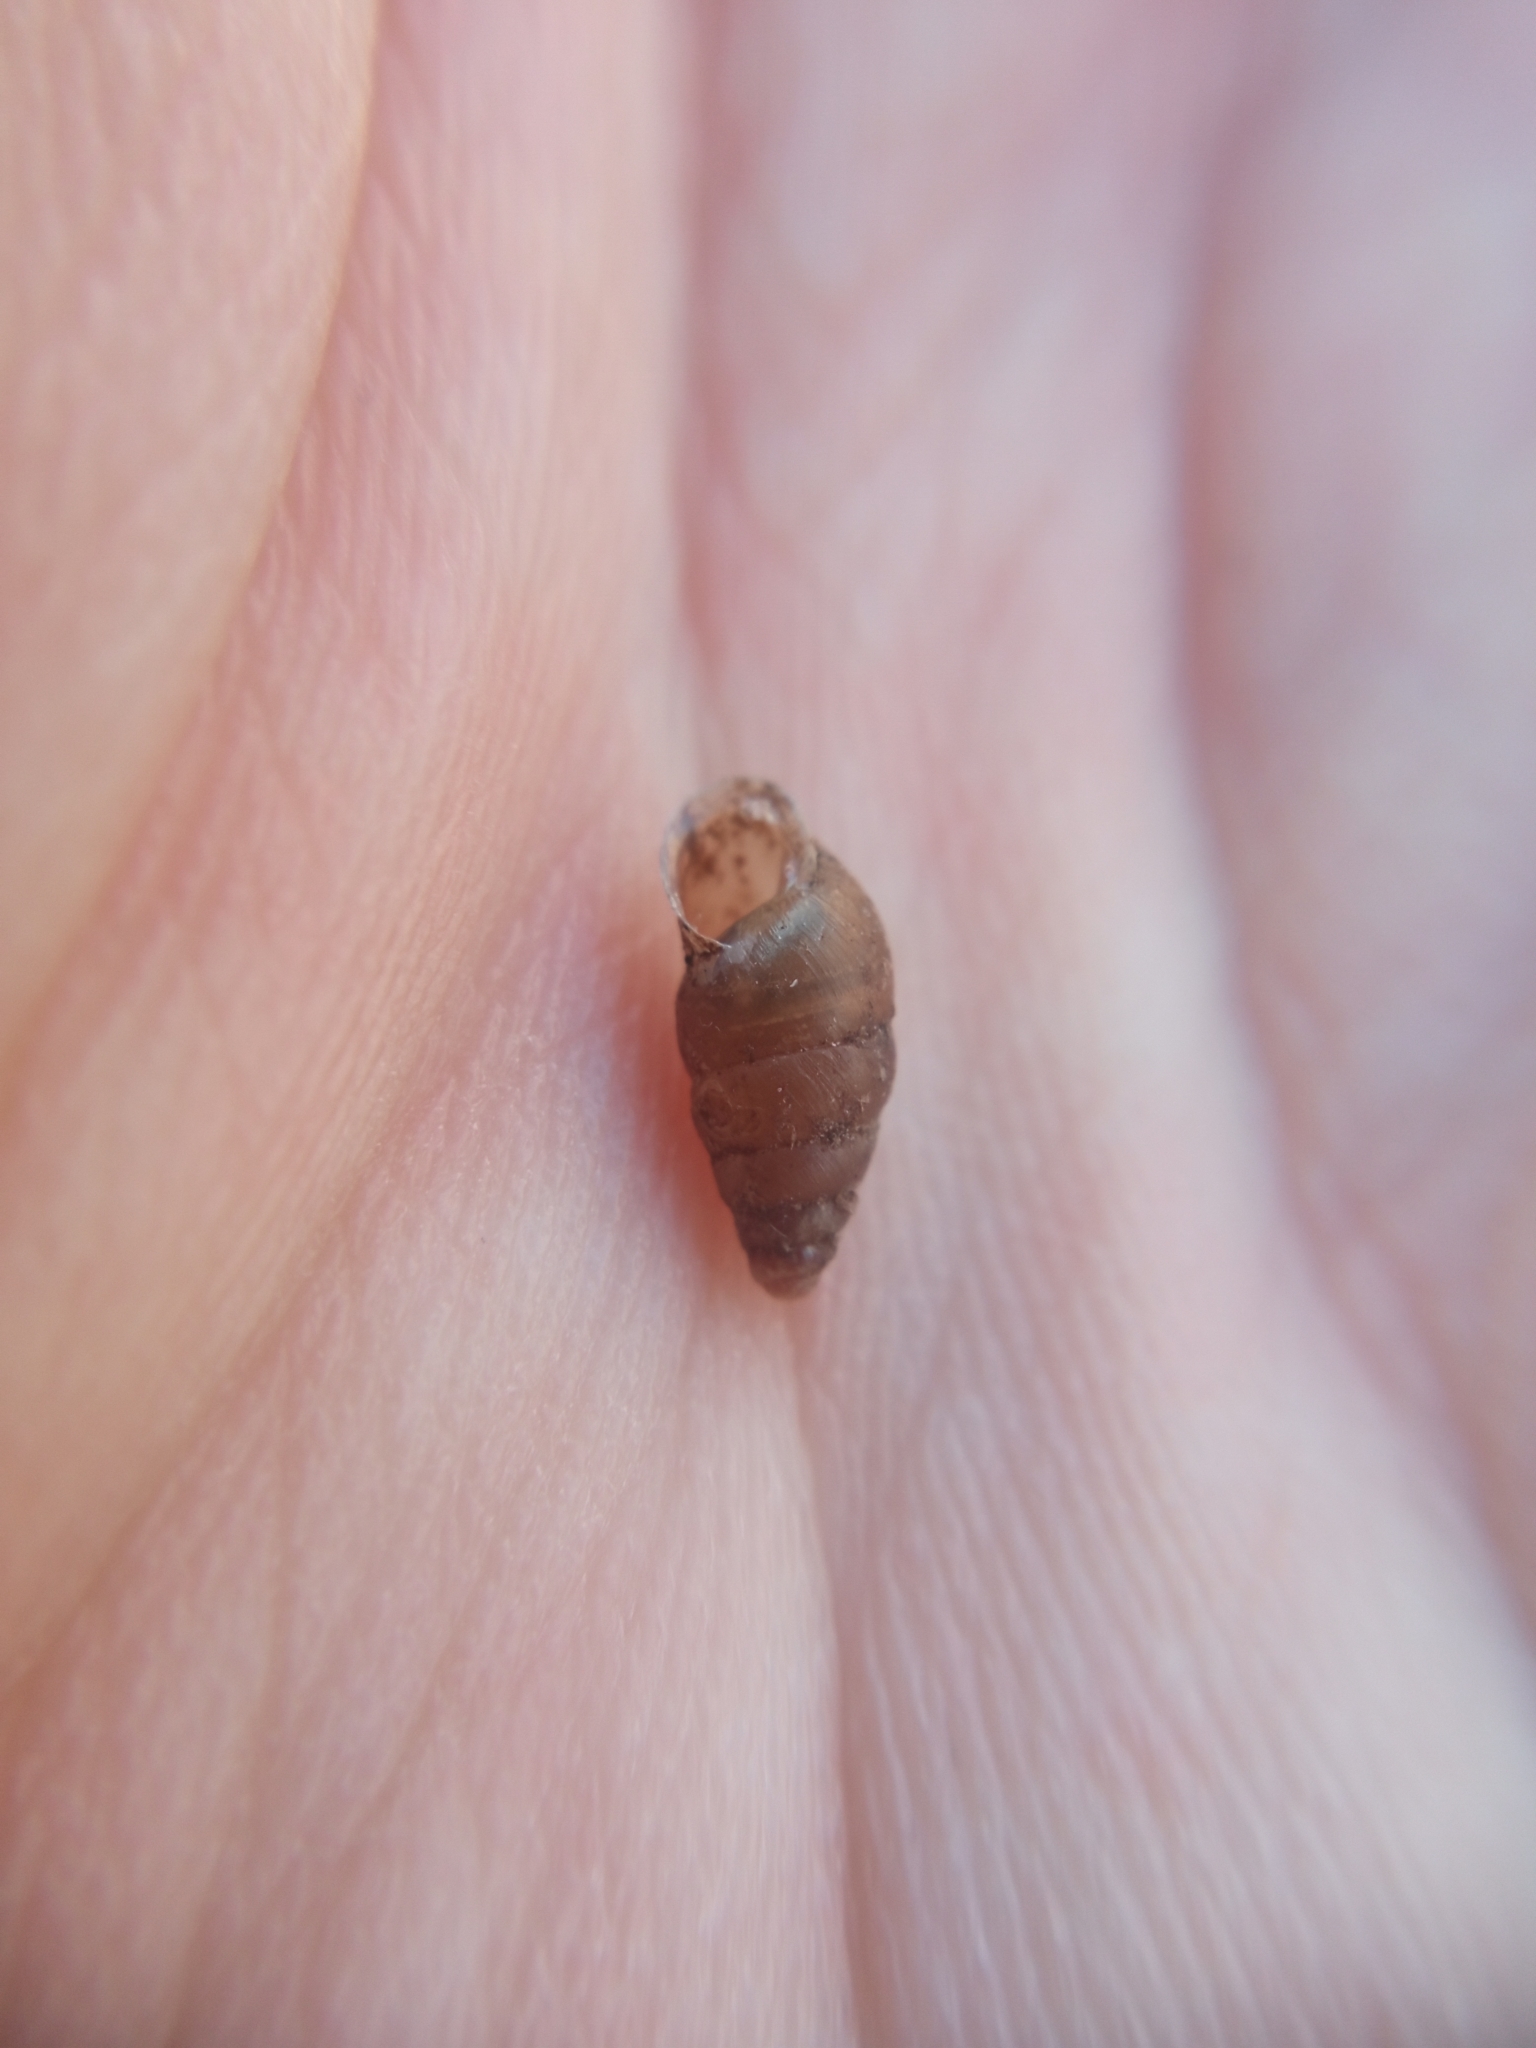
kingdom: Animalia
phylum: Mollusca
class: Gastropoda
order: Stylommatophora
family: Enidae
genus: Merdigera
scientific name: Merdigera obscura
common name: Lesser bulin
